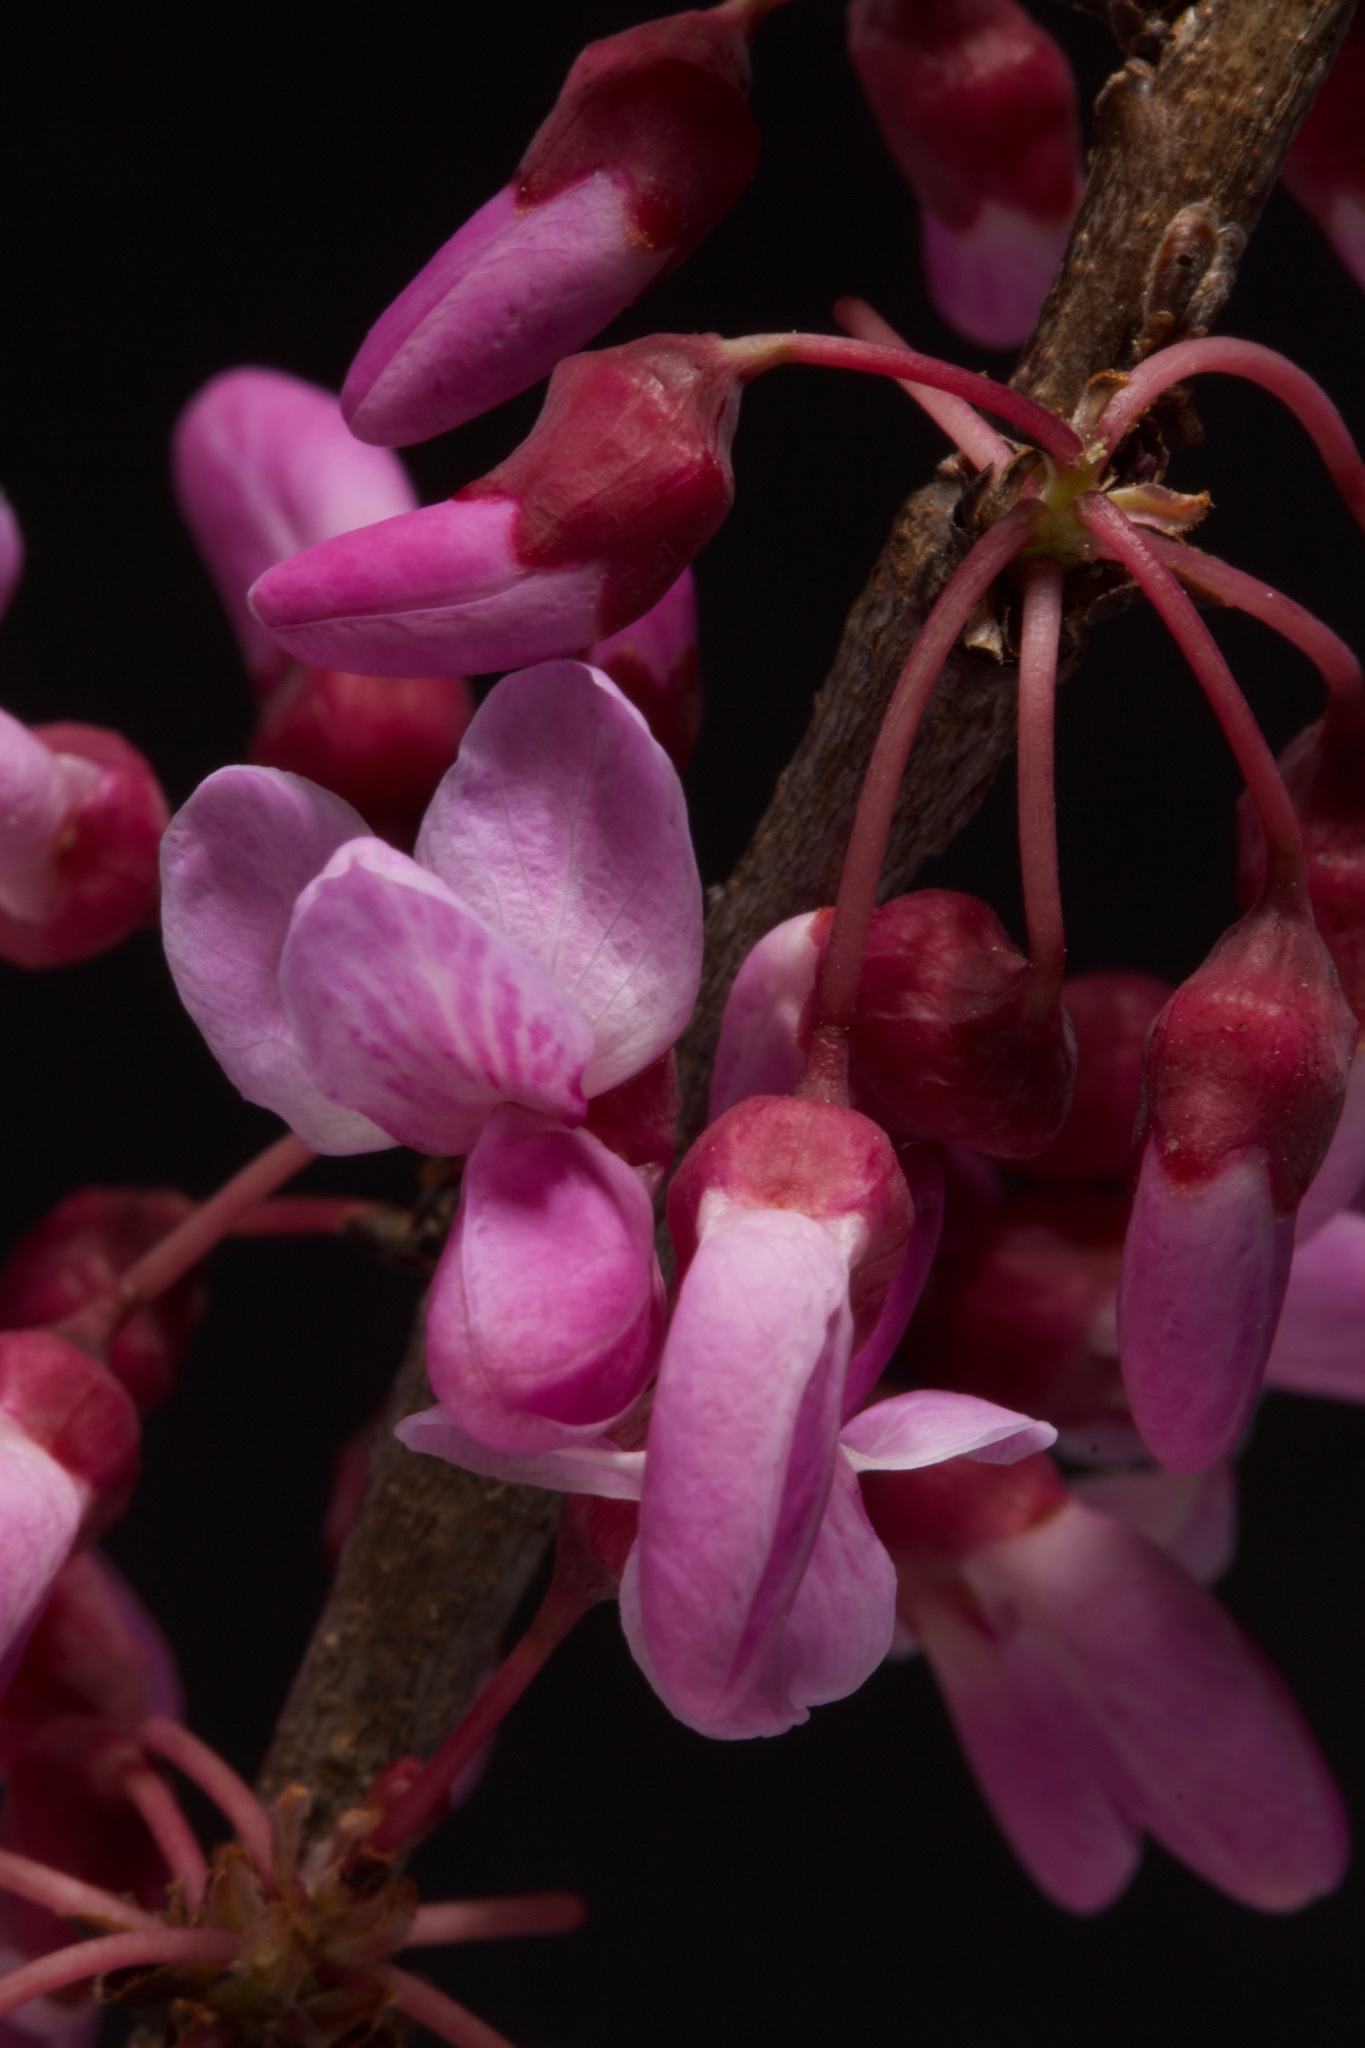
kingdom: Plantae
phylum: Tracheophyta
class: Magnoliopsida
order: Fabales
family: Fabaceae
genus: Cercis
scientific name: Cercis canadensis
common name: Eastern redbud
